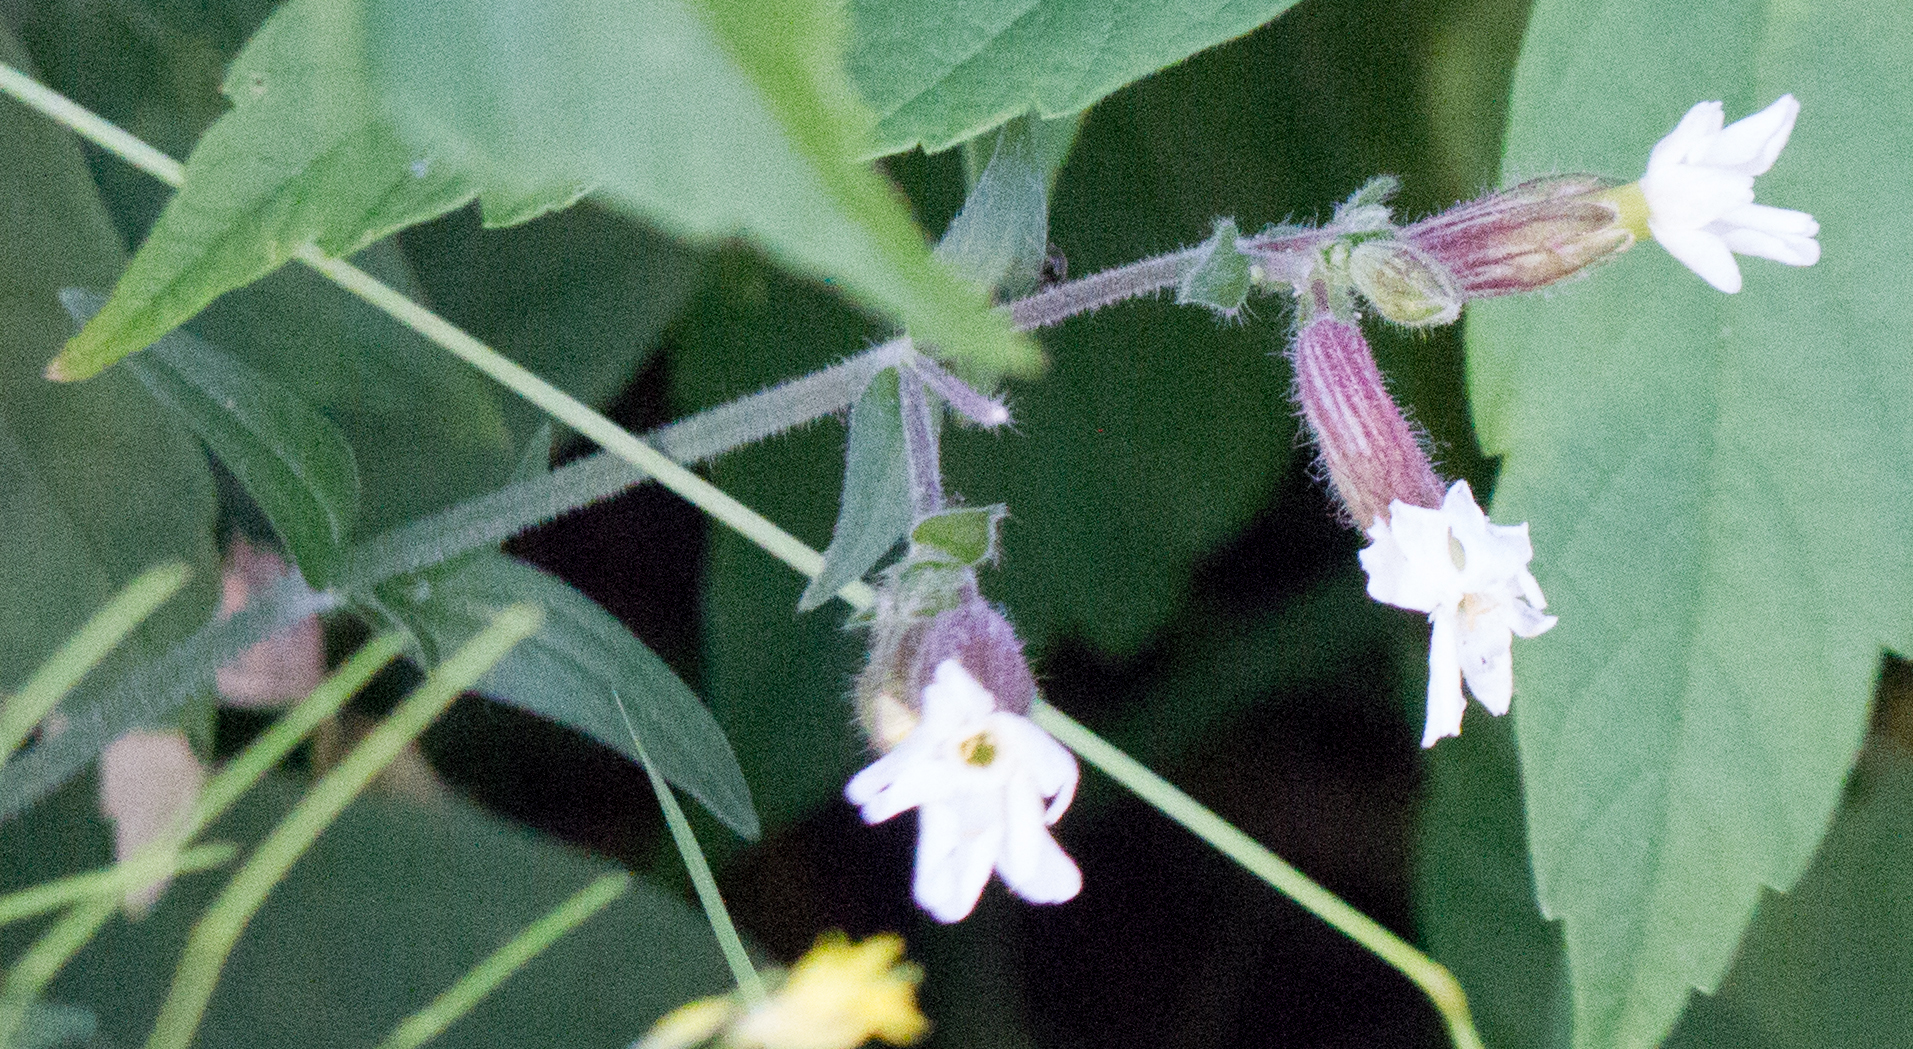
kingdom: Plantae
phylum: Tracheophyta
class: Magnoliopsida
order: Caryophyllales
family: Caryophyllaceae
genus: Silene
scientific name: Silene latifolia
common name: White campion
